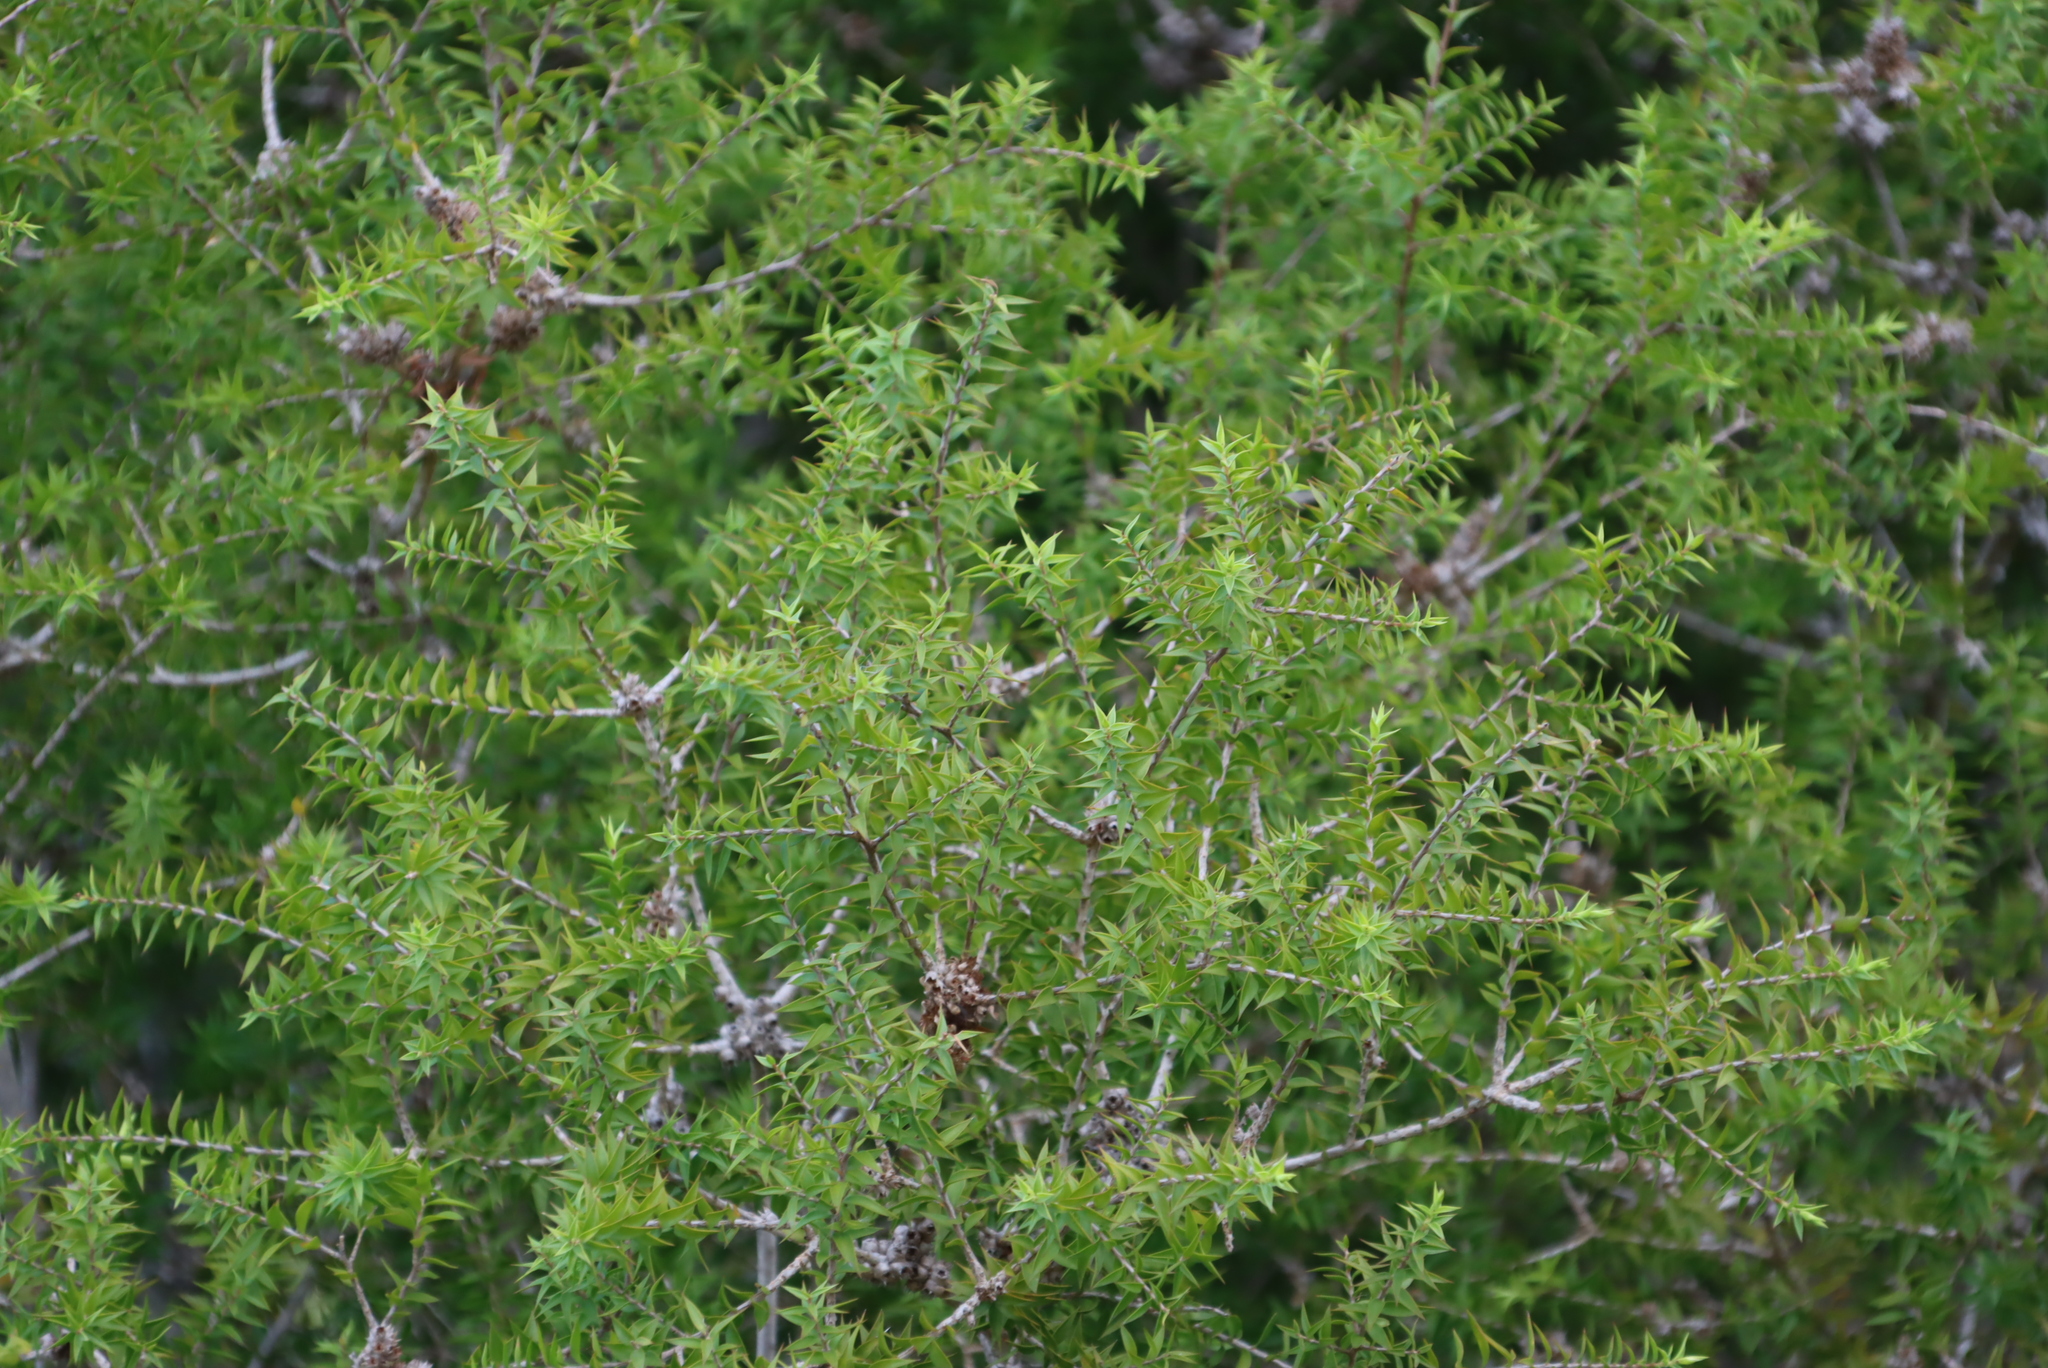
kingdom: Plantae
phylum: Tracheophyta
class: Magnoliopsida
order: Myrtales
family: Myrtaceae
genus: Melaleuca
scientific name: Melaleuca styphelioides
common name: Prickly paperbark
